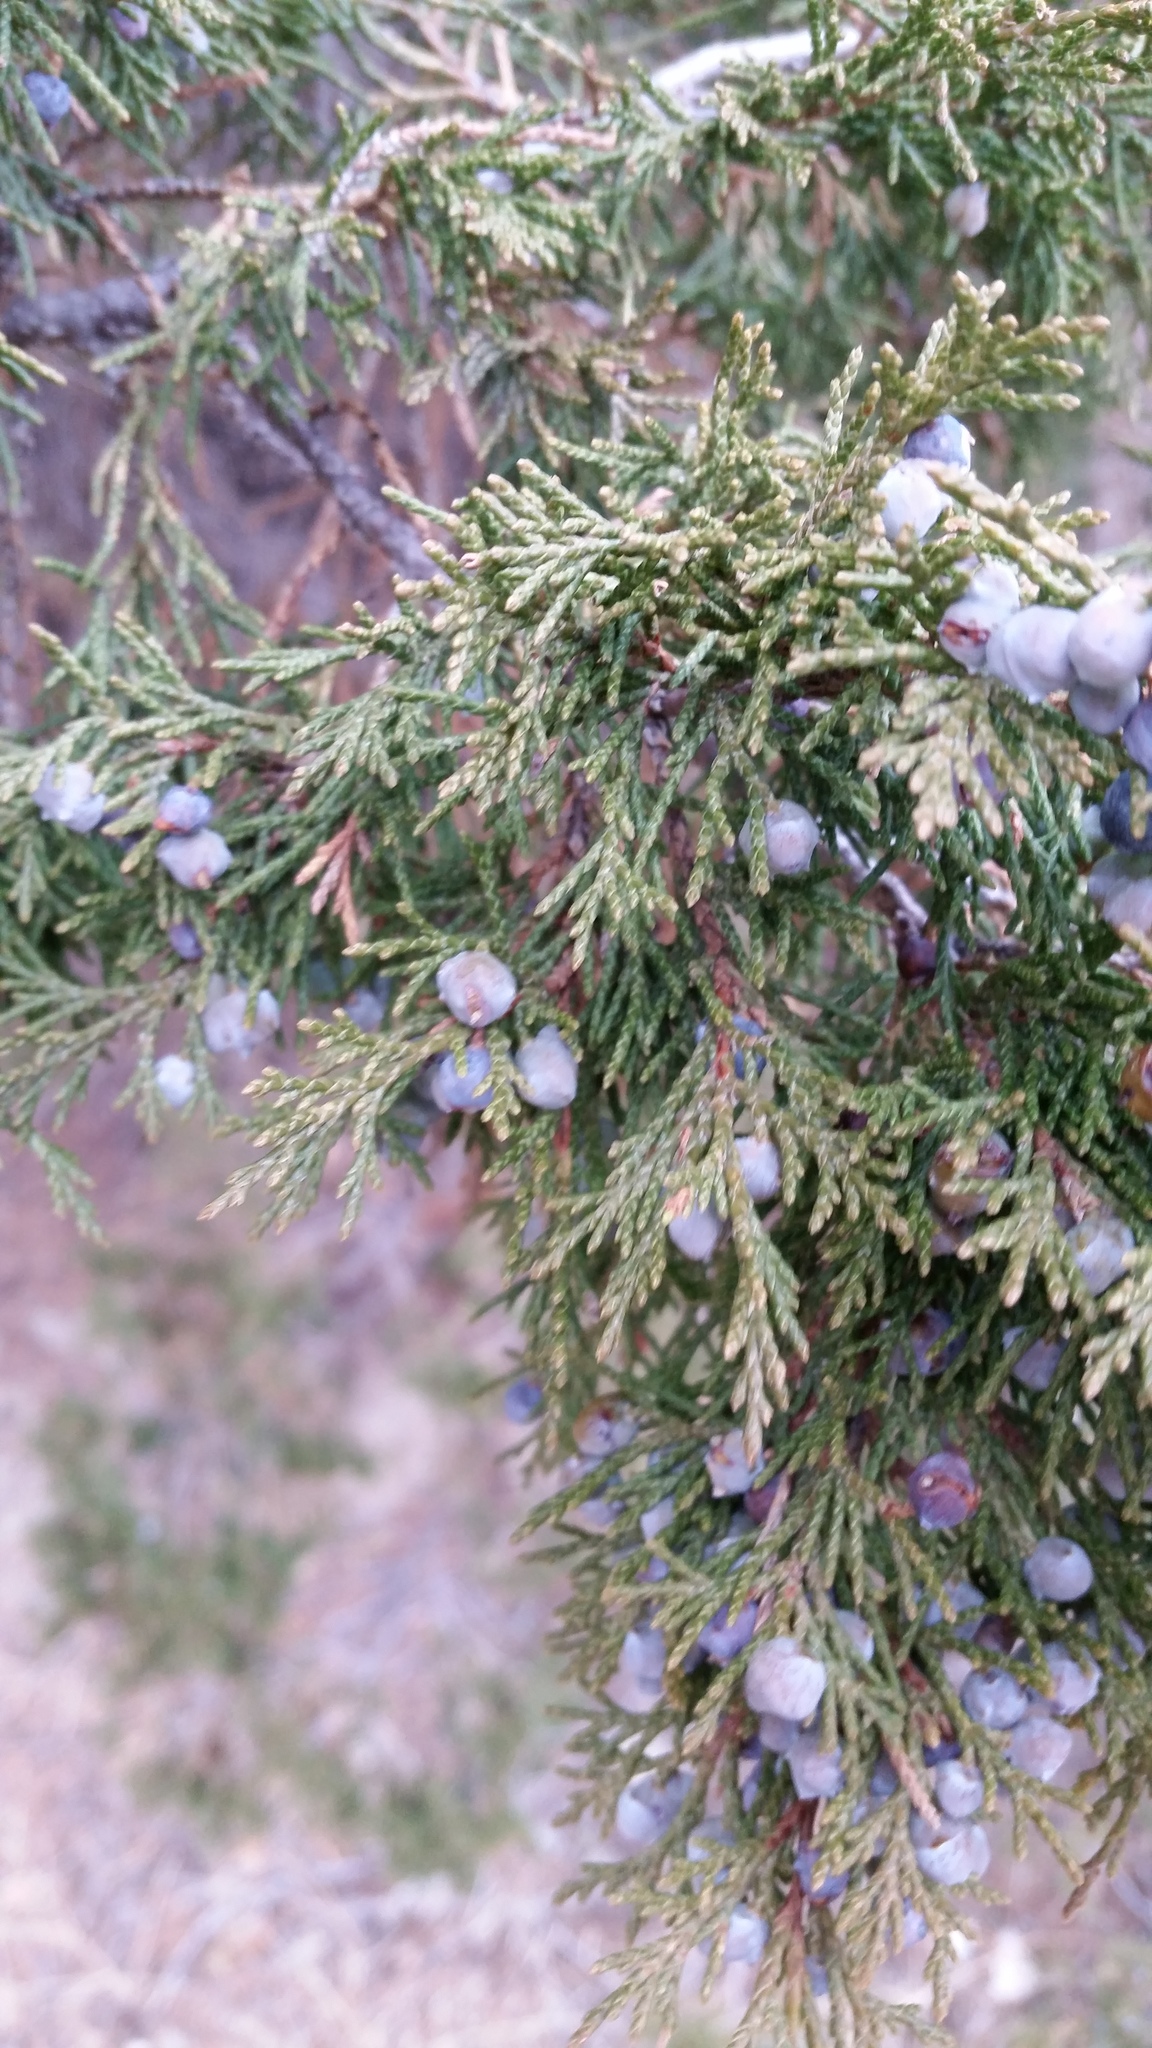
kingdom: Plantae
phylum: Tracheophyta
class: Pinopsida
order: Pinales
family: Cupressaceae
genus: Juniperus
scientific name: Juniperus scopulorum
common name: Rocky mountain juniper
